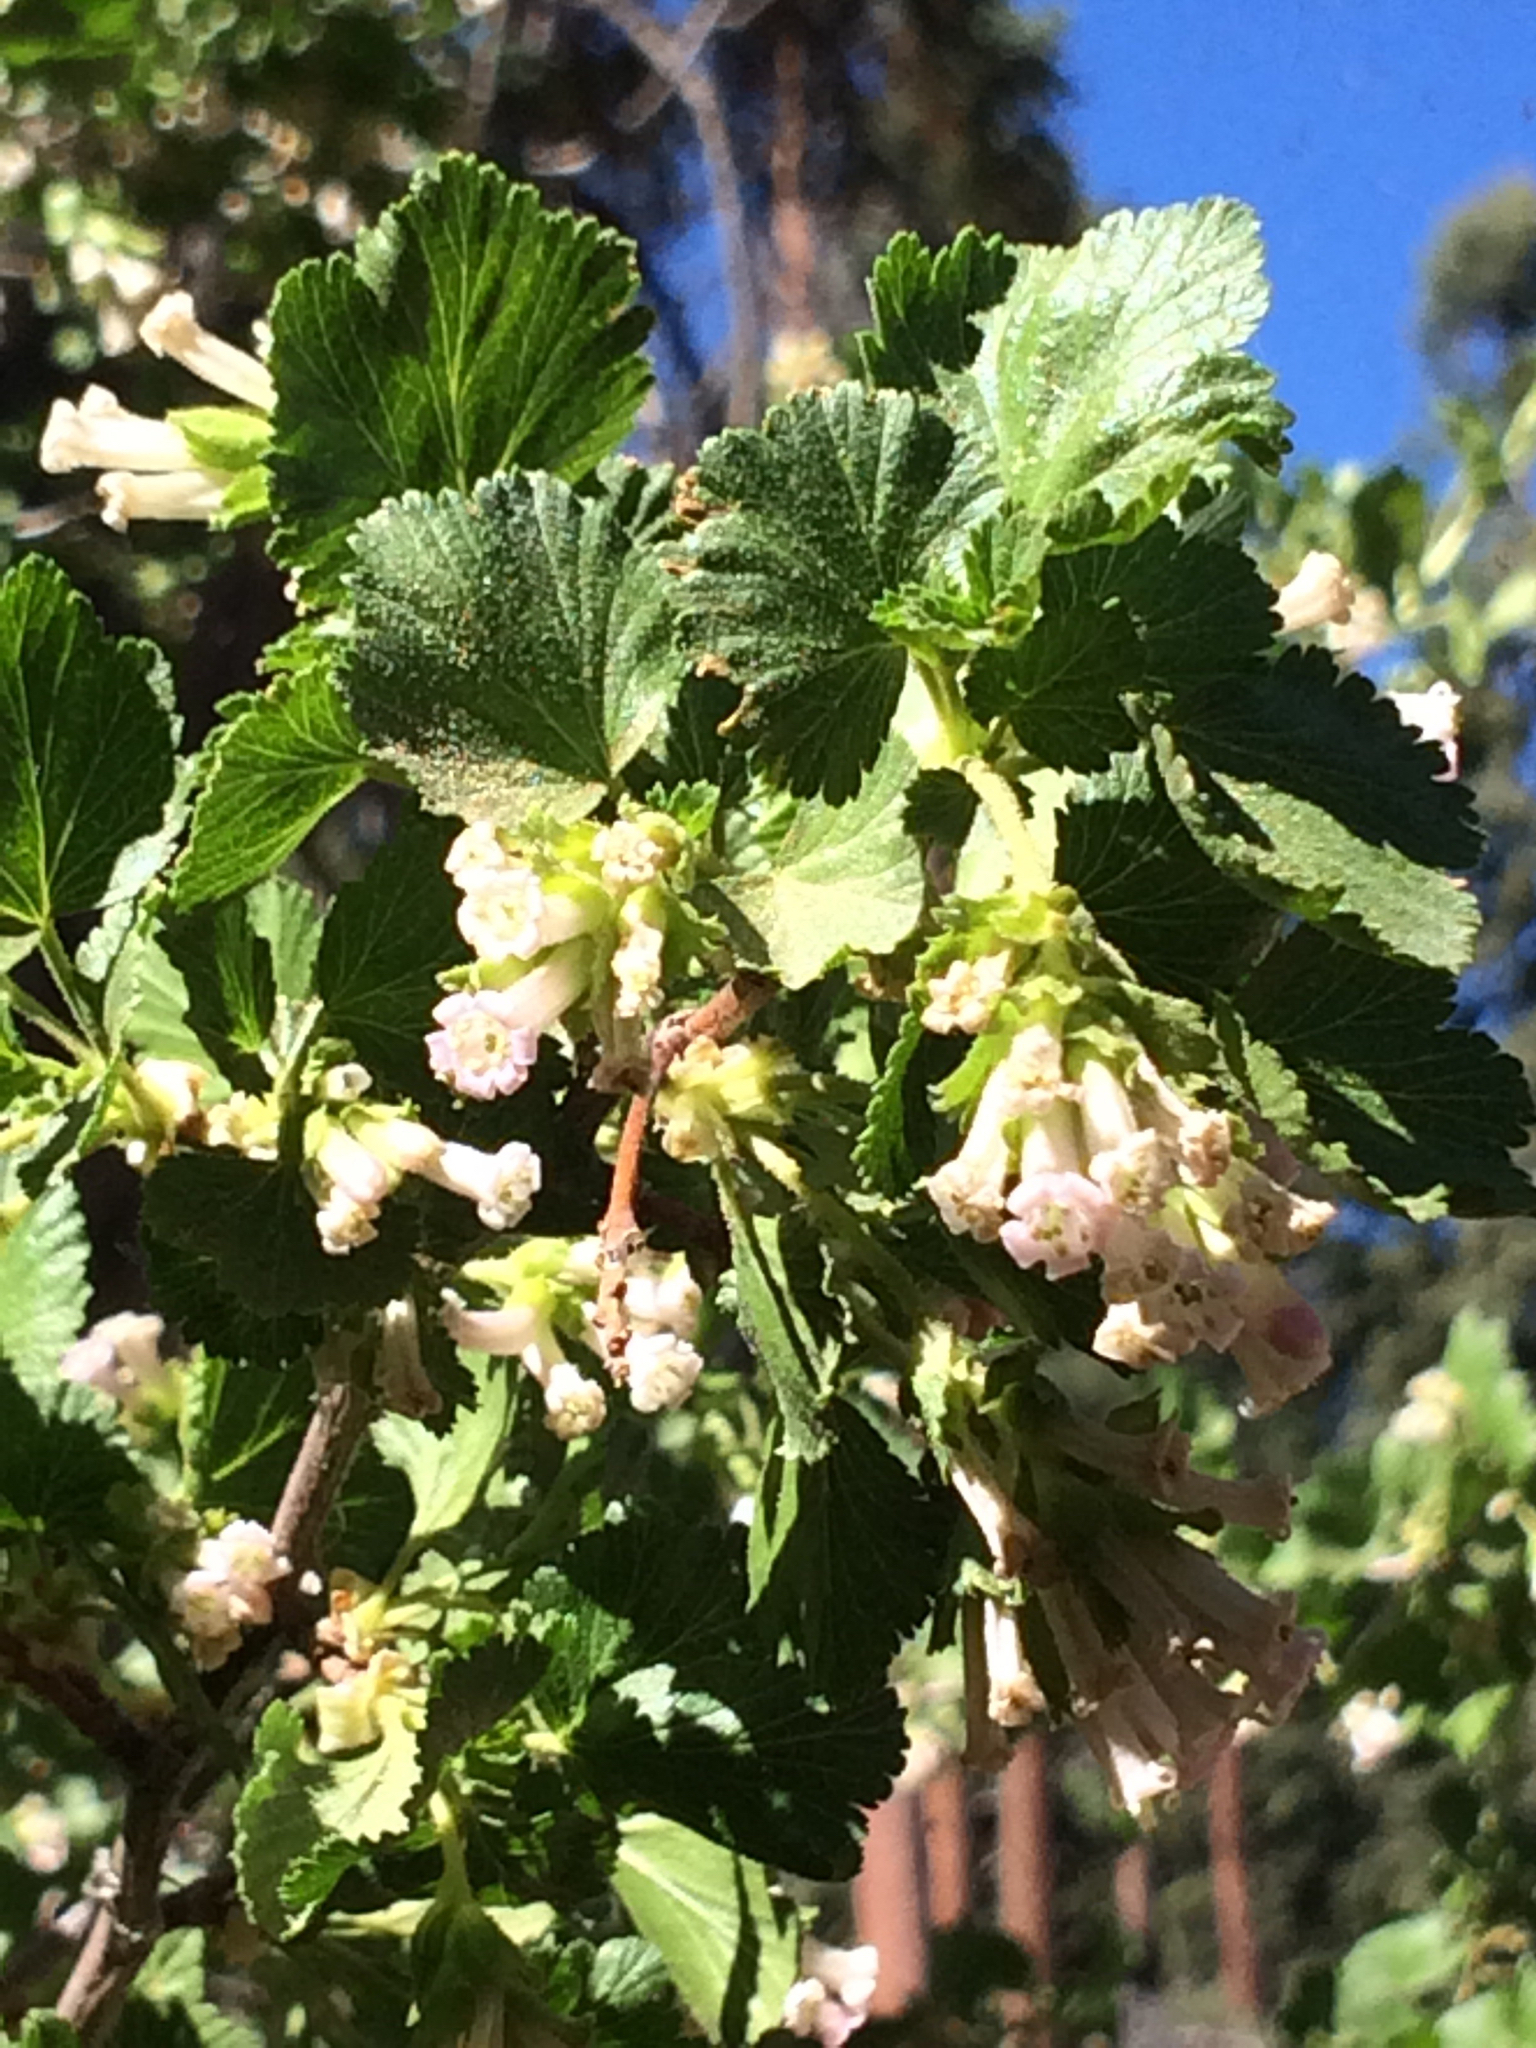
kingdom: Plantae
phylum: Tracheophyta
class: Magnoliopsida
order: Saxifragales
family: Grossulariaceae
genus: Ribes
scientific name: Ribes cereum
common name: Wax currant
